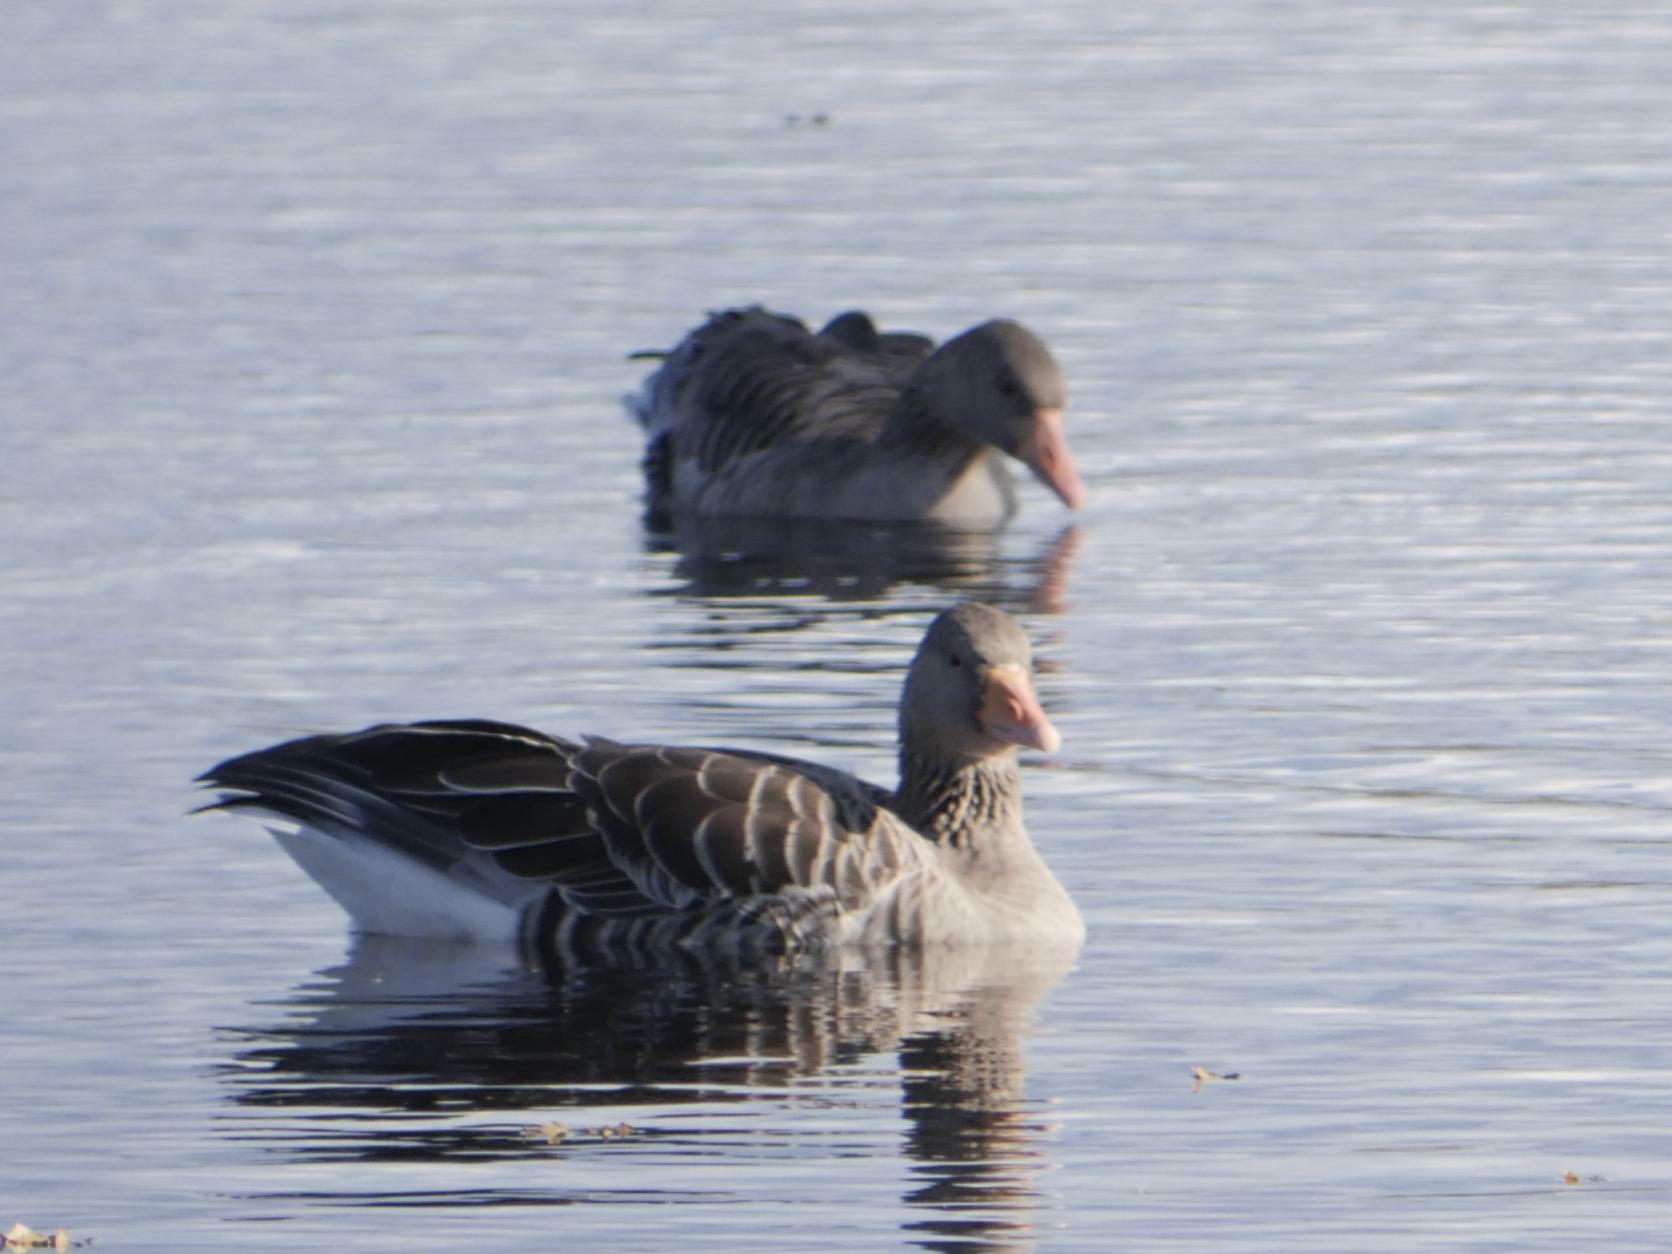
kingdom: Animalia
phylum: Chordata
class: Aves
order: Anseriformes
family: Anatidae
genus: Anser
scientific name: Anser anser
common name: Greylag goose
